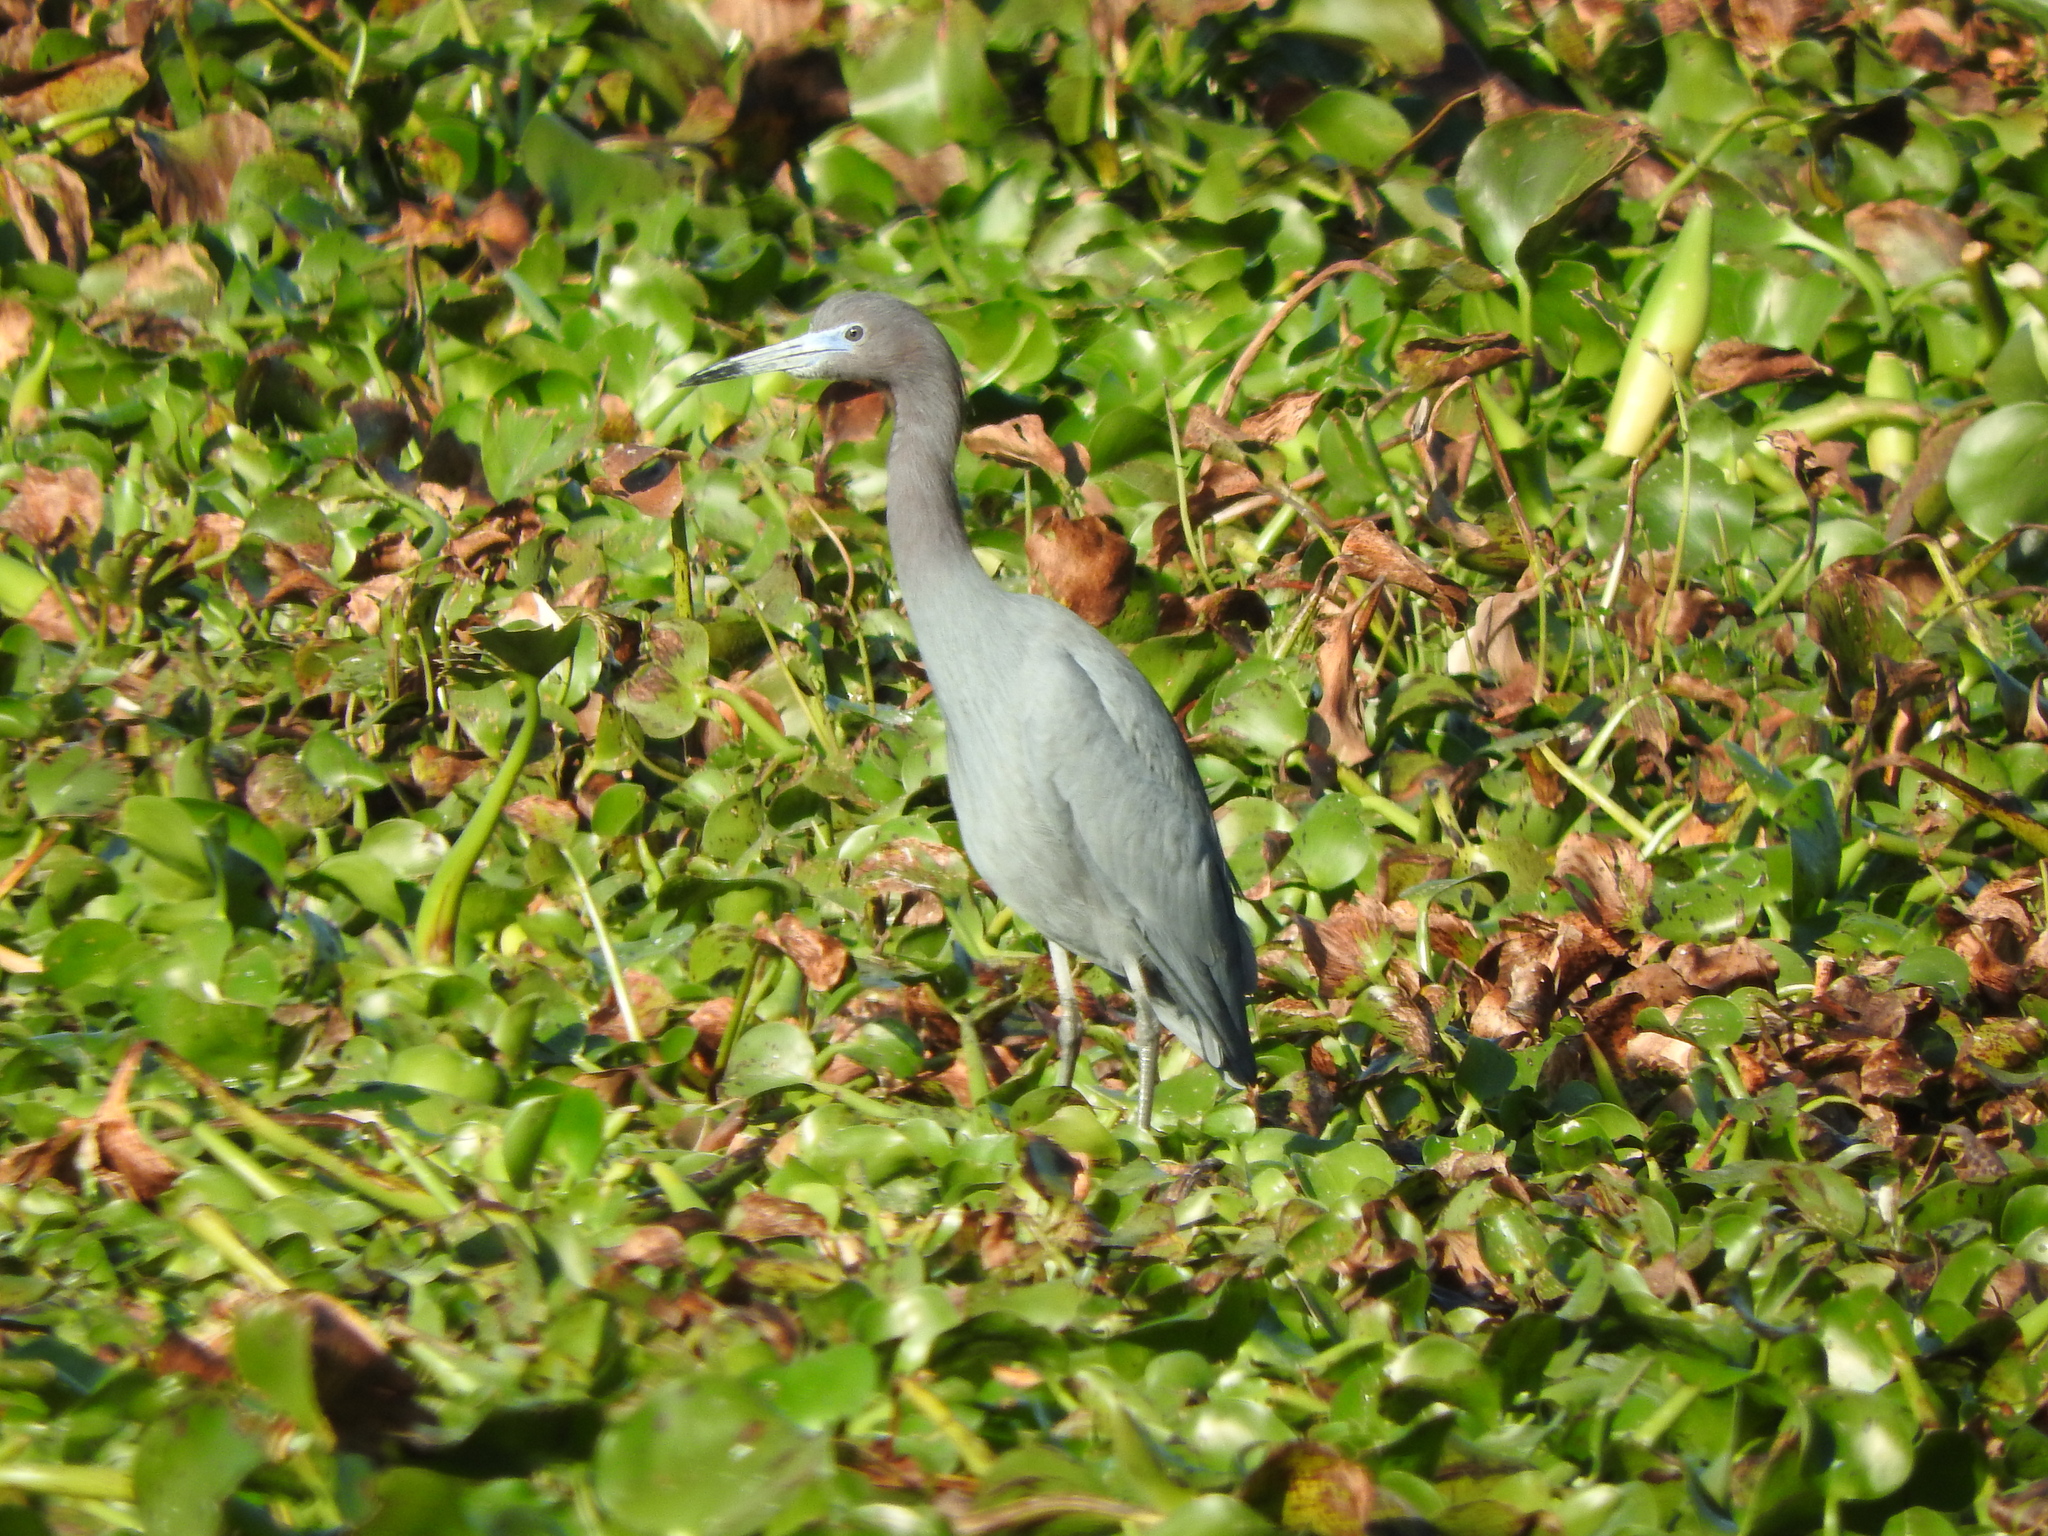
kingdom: Animalia
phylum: Chordata
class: Aves
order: Pelecaniformes
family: Ardeidae
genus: Egretta
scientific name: Egretta caerulea
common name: Little blue heron
